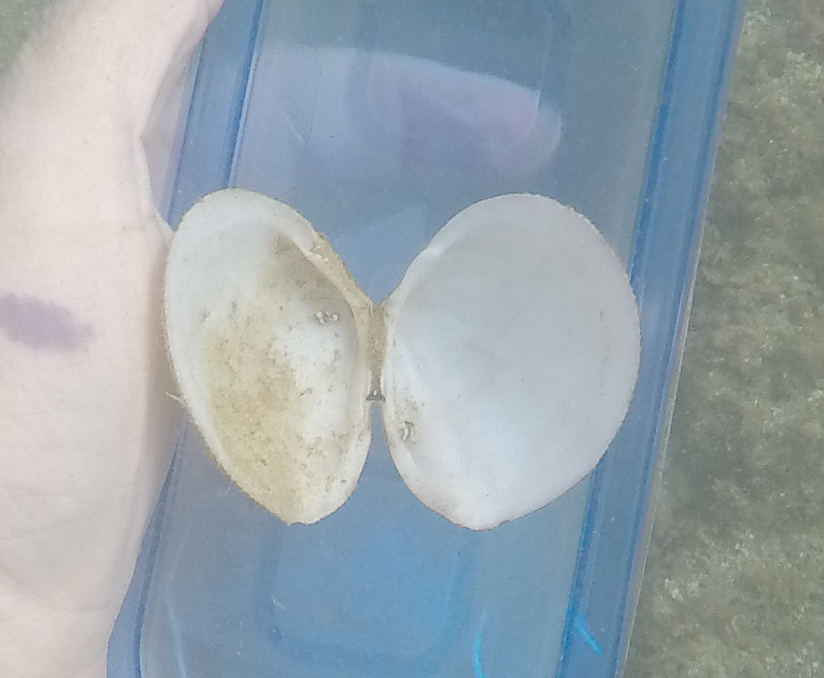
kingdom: Animalia
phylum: Mollusca
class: Bivalvia
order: Cardiida
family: Tellinidae
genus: Scutarcopagia
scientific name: Scutarcopagia scobinata
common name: Rasp tellin
